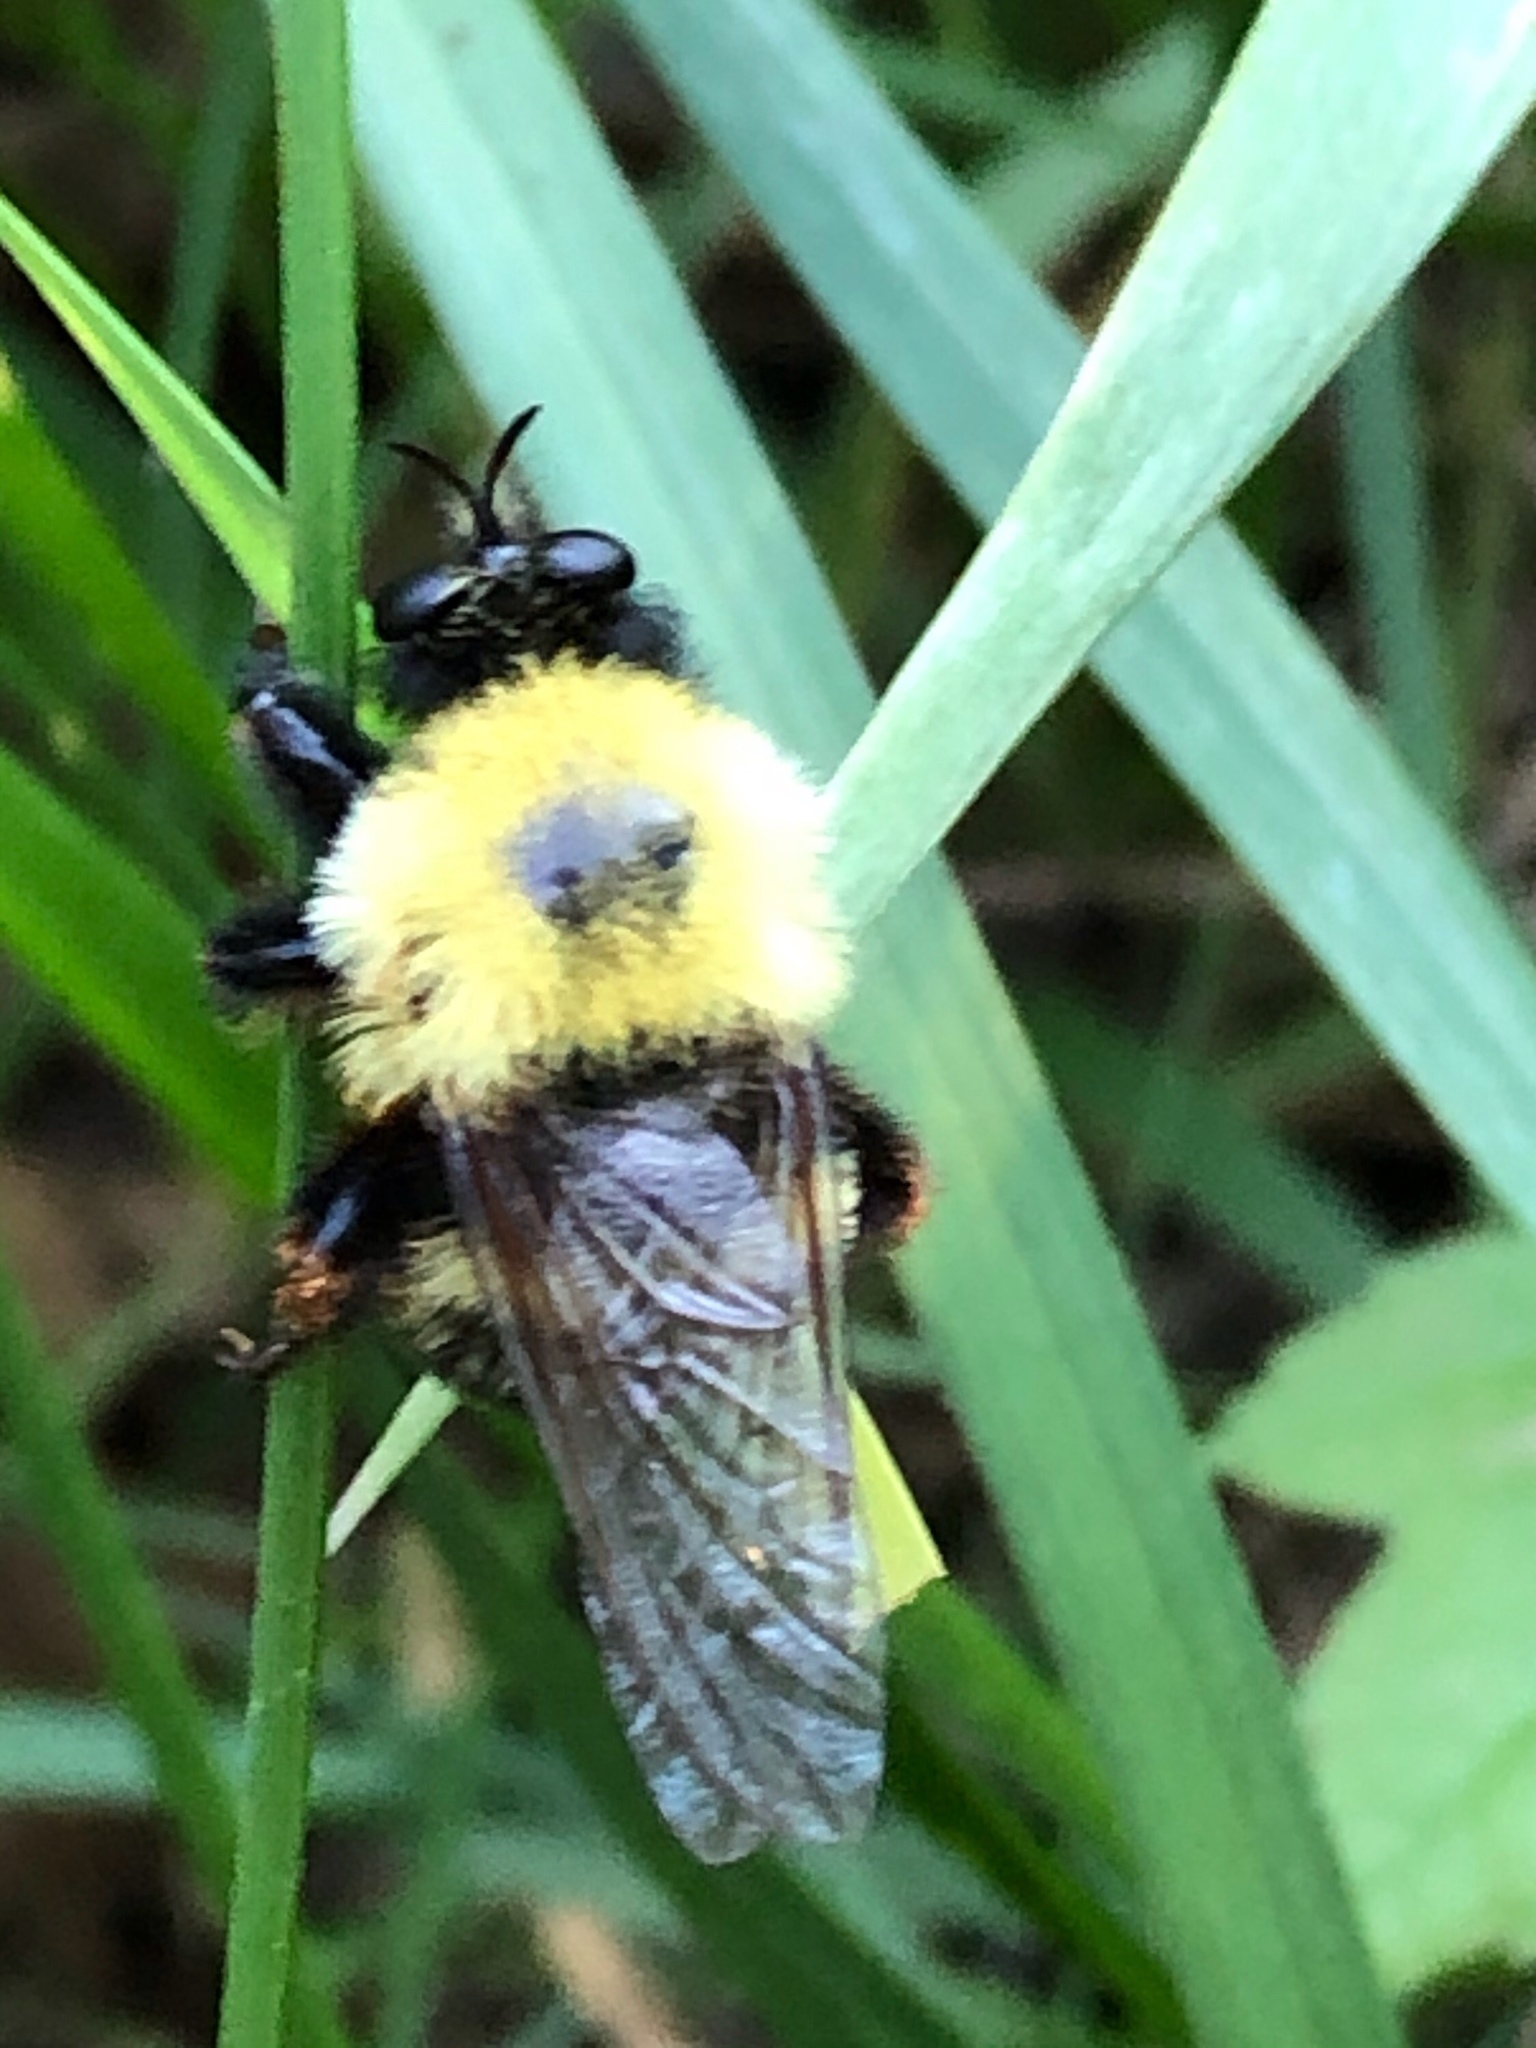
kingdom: Animalia
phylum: Arthropoda
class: Insecta
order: Diptera
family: Asilidae
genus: Laphria
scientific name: Laphria thoracica
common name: Bumble bee mimic robber fly
